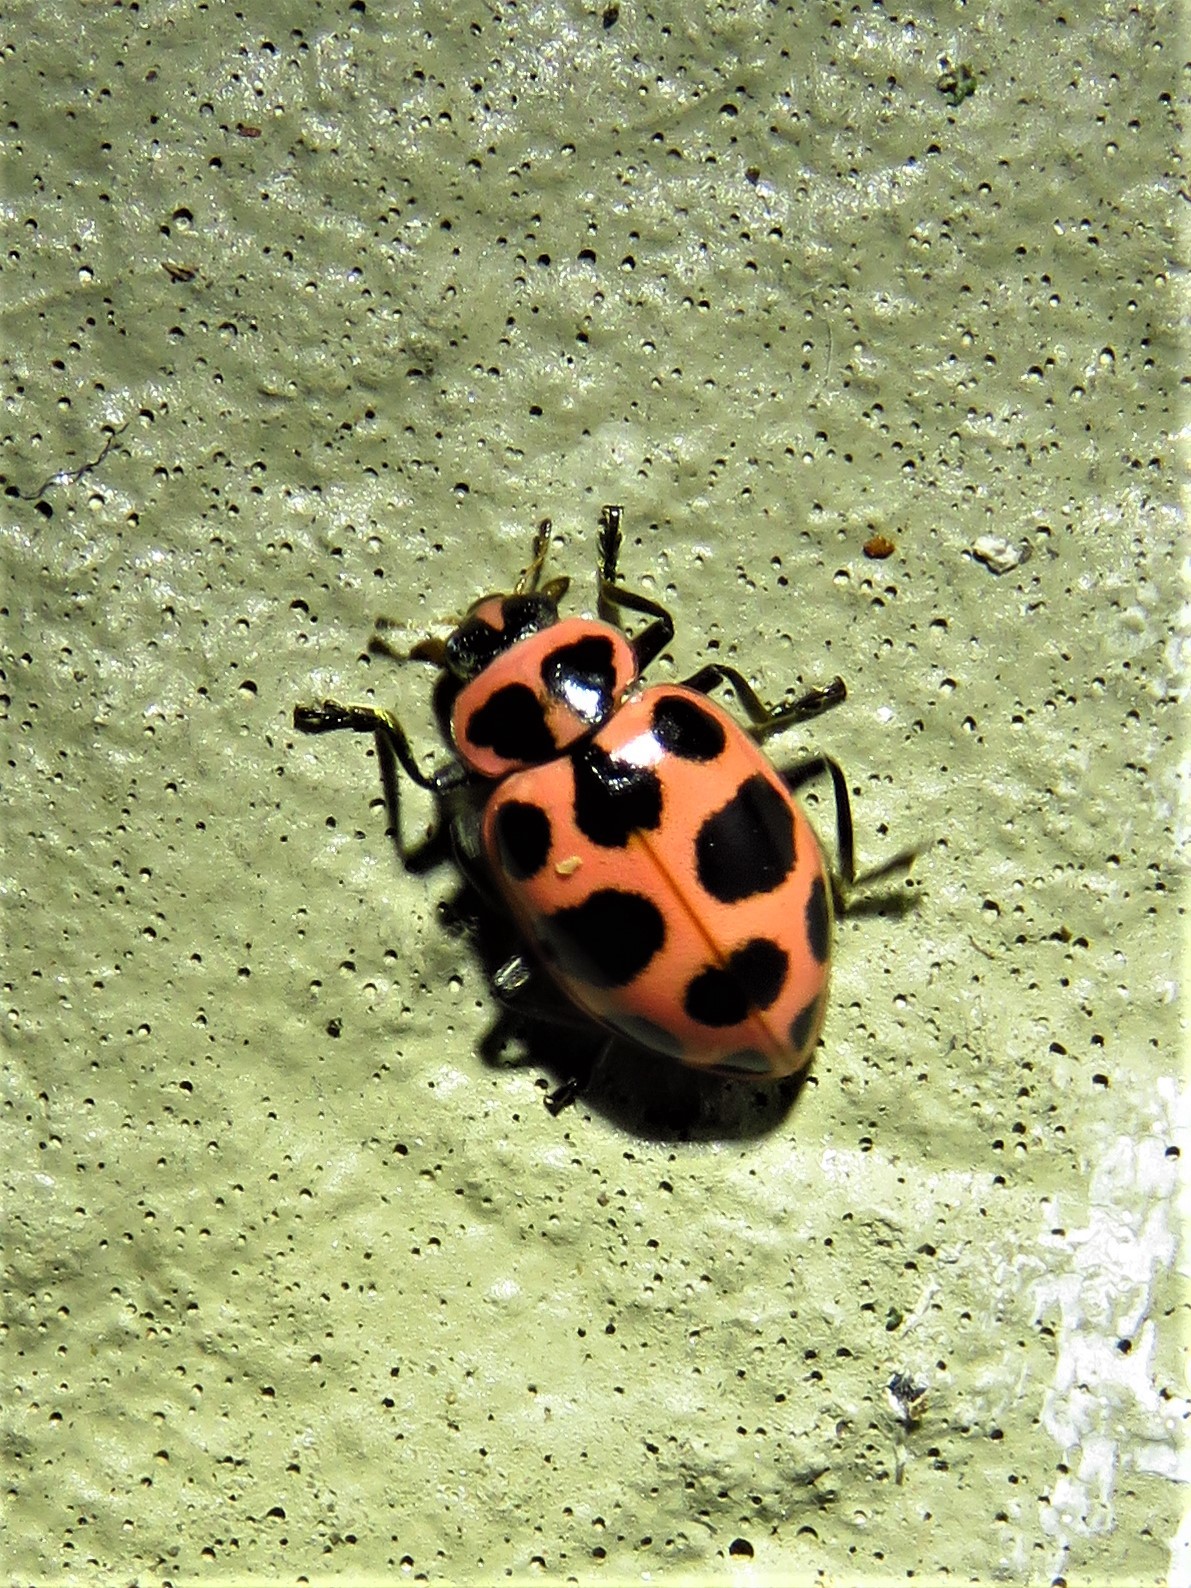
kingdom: Animalia
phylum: Arthropoda
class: Insecta
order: Coleoptera
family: Coccinellidae
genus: Coleomegilla
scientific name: Coleomegilla maculata
